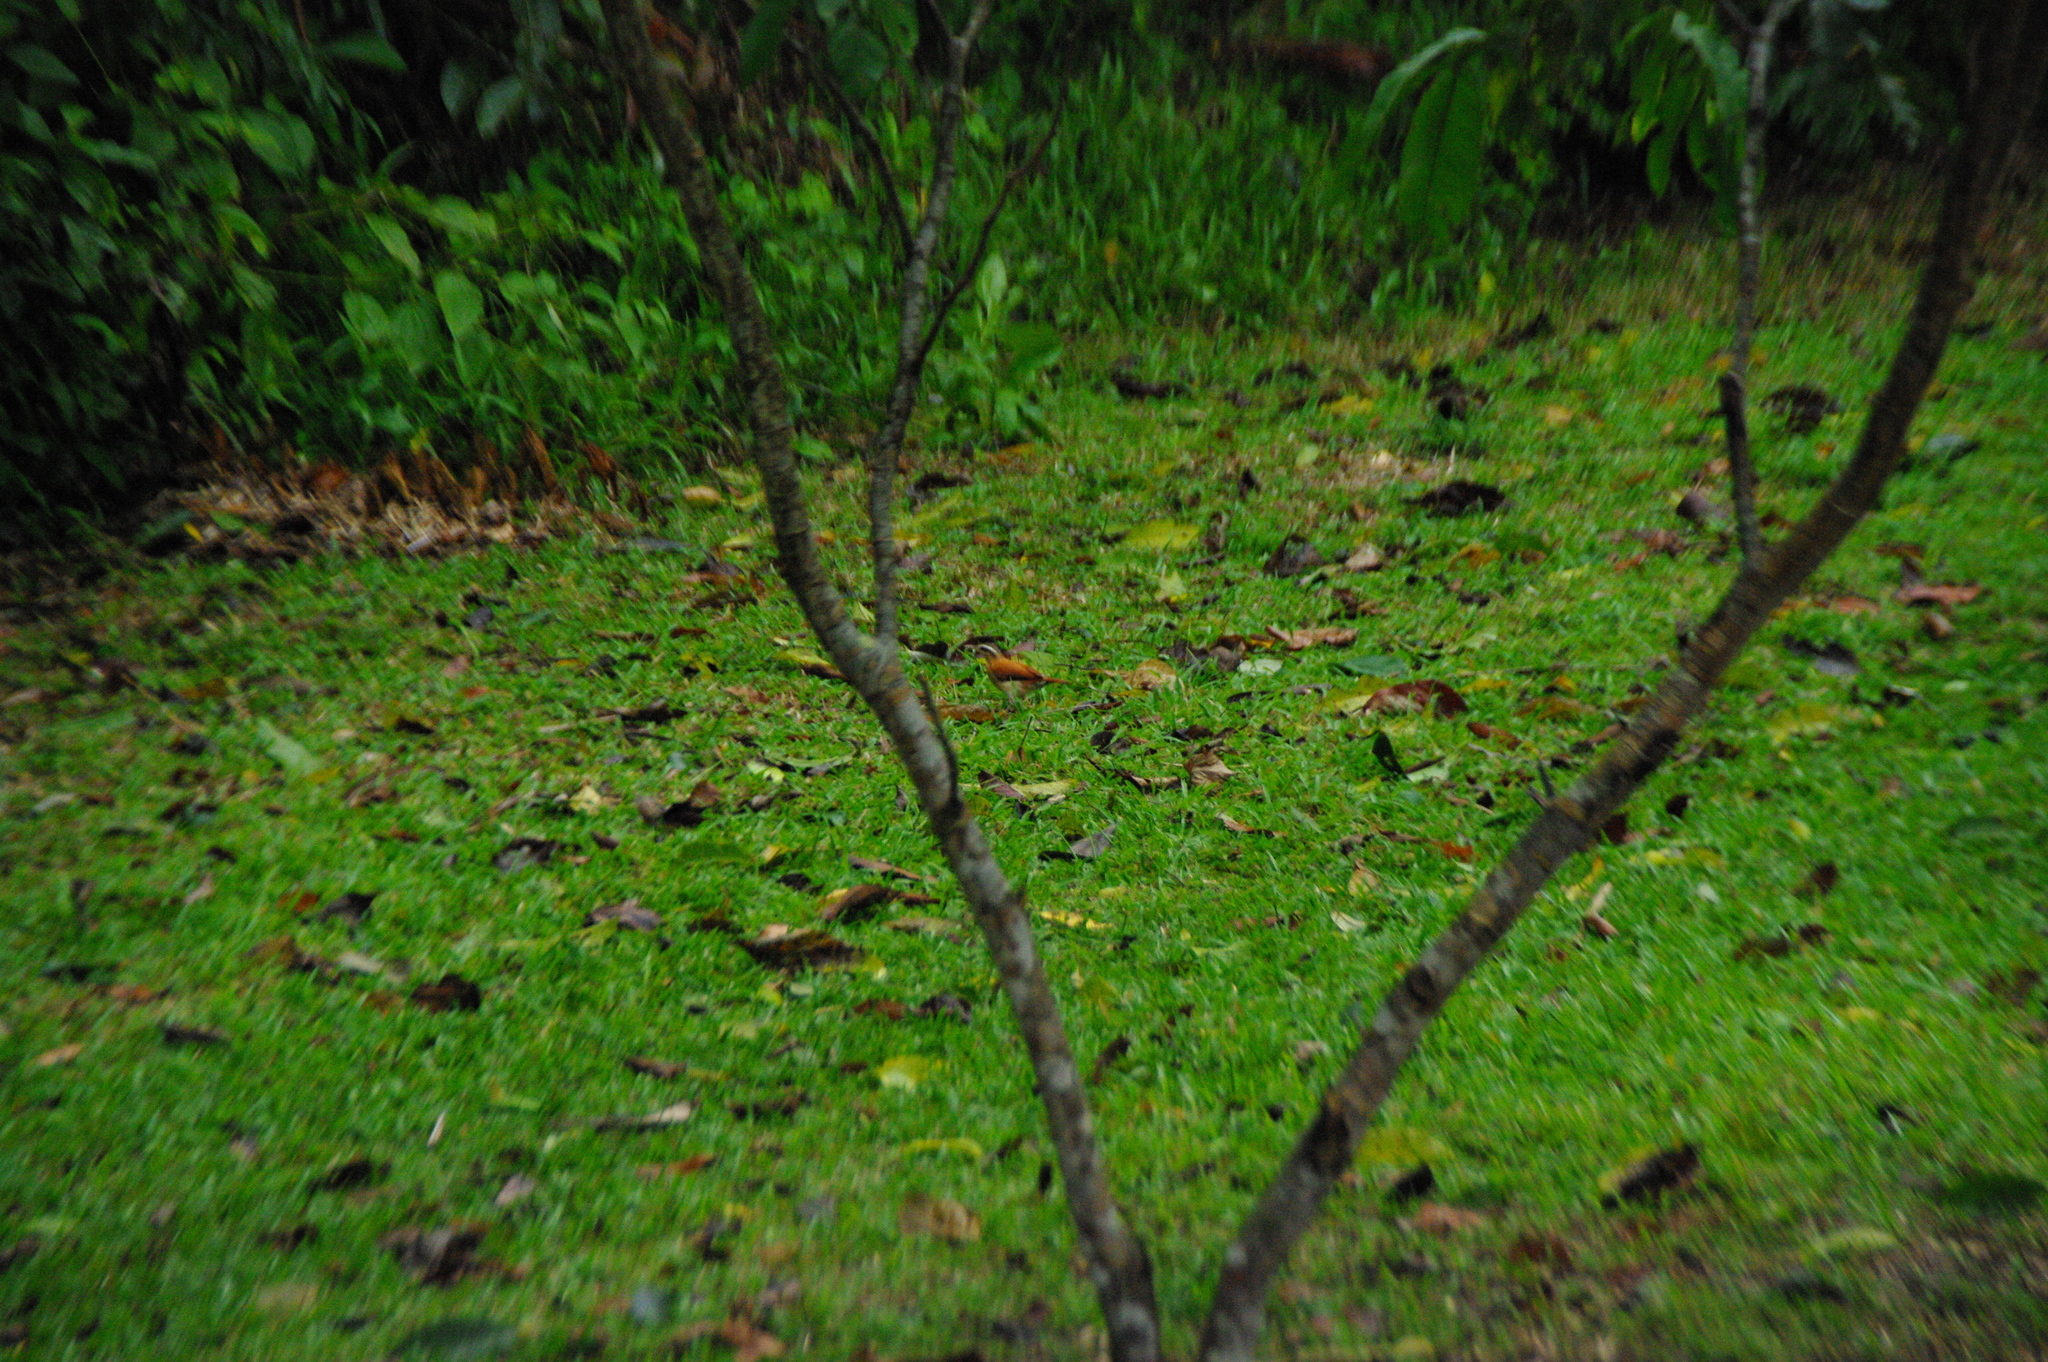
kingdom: Animalia
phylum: Chordata
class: Aves
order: Passeriformes
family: Furnariidae
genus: Furnarius
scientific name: Furnarius leucopus
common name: Pale-legged hornero
